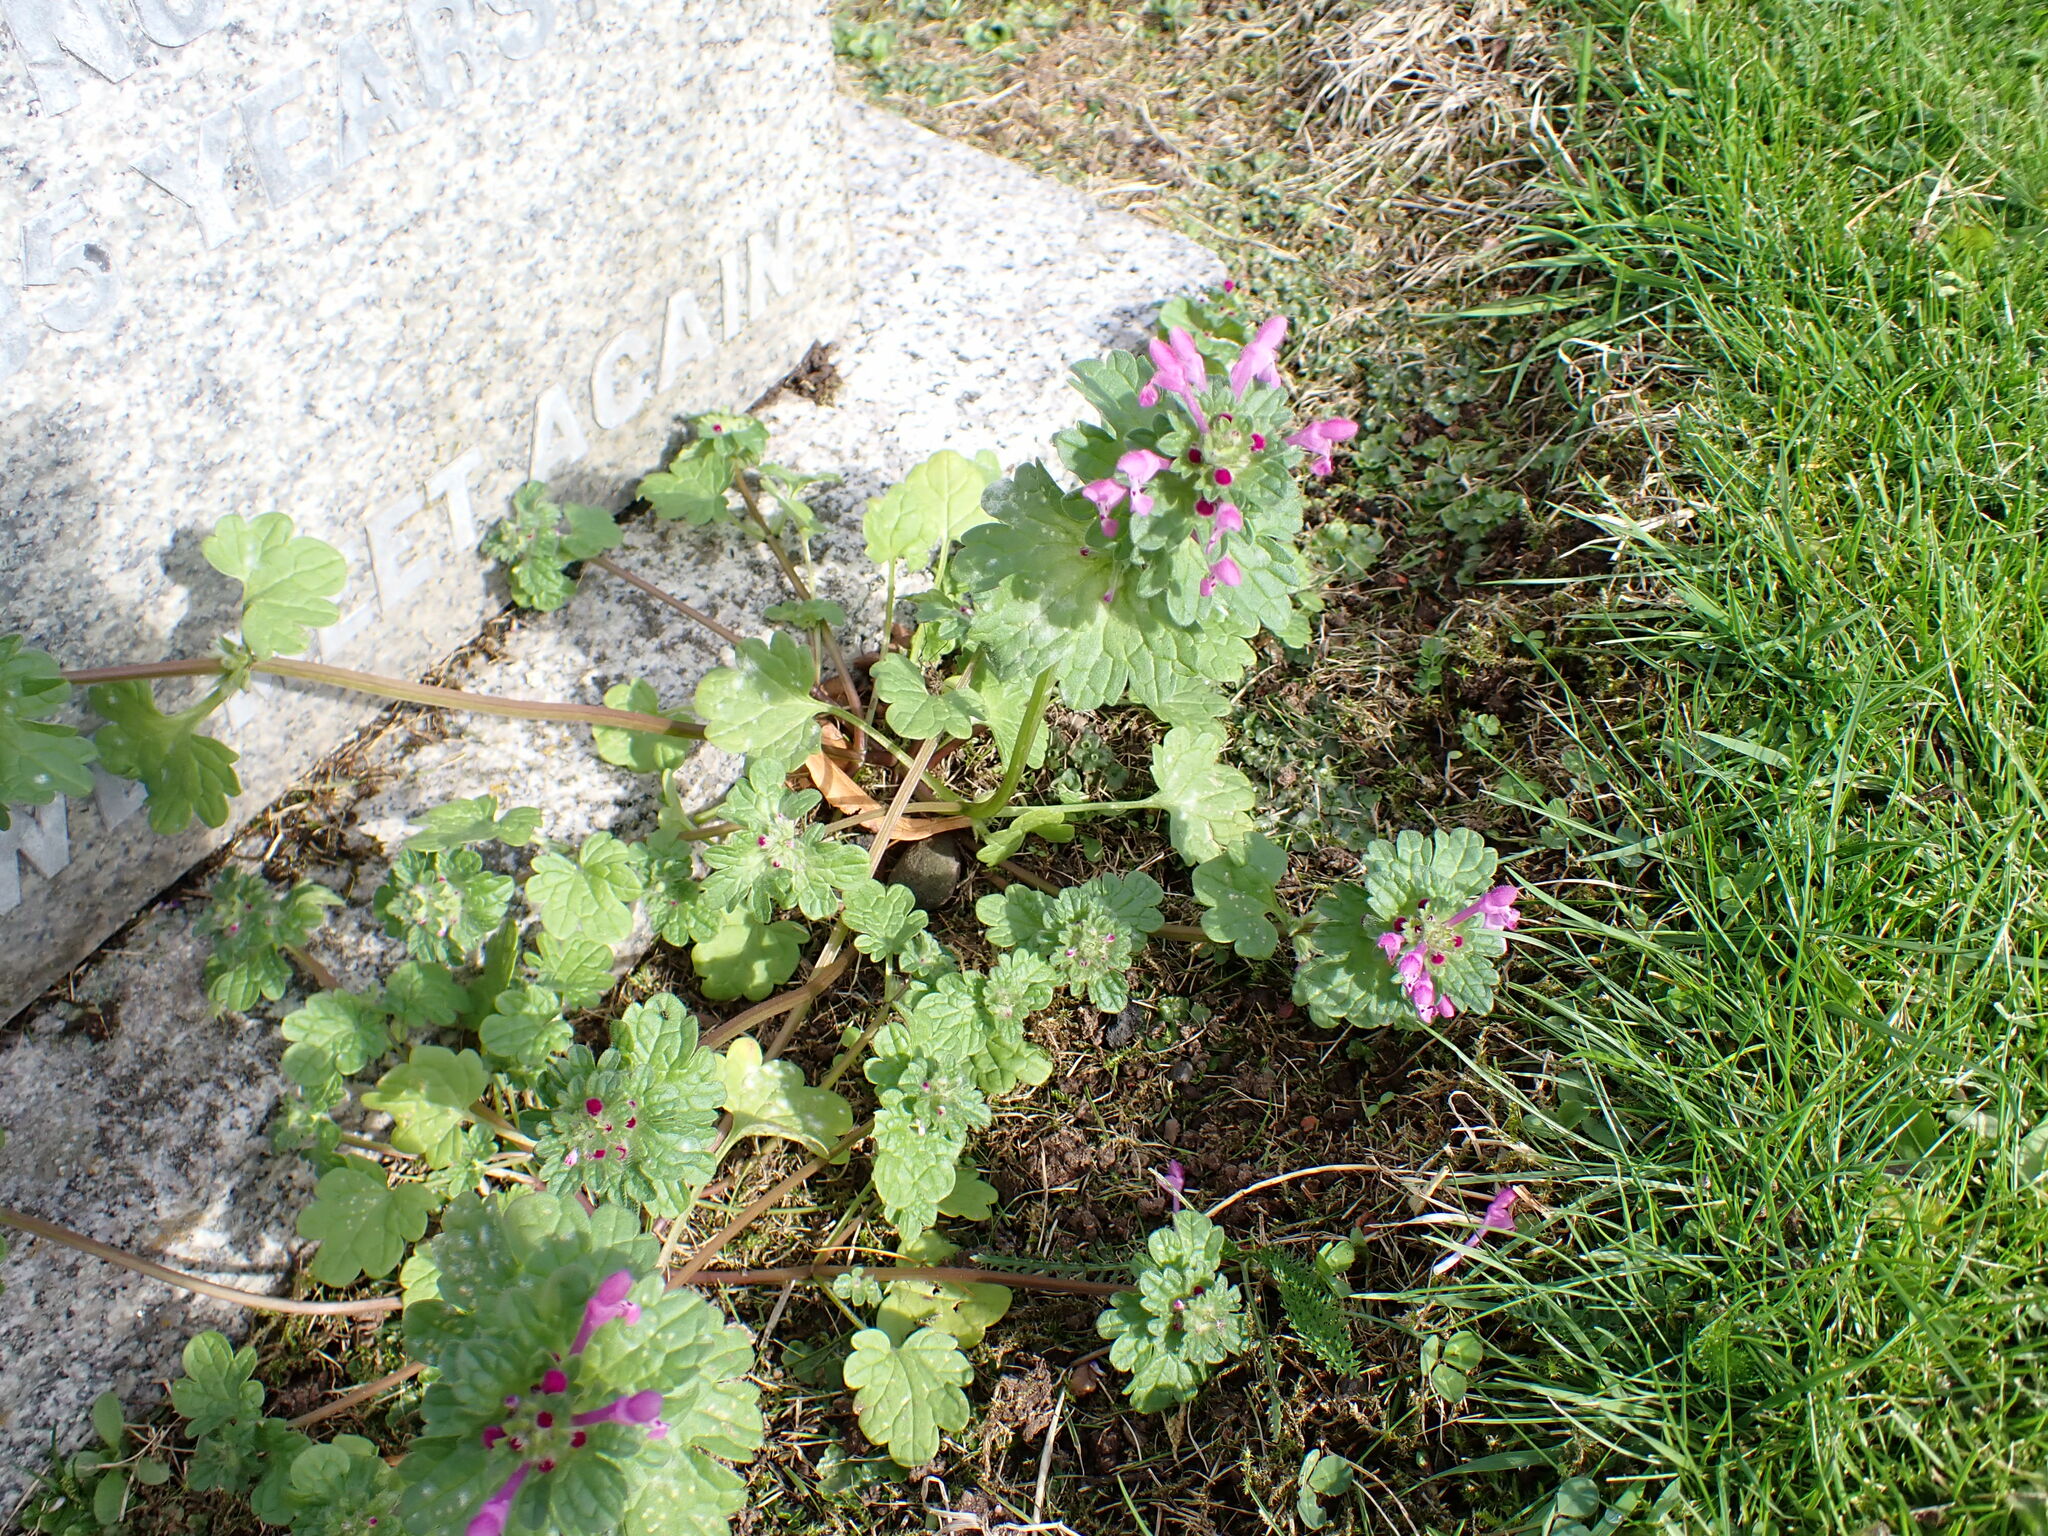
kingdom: Plantae
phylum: Tracheophyta
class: Magnoliopsida
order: Lamiales
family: Lamiaceae
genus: Lamium
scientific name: Lamium amplexicaule
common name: Henbit dead-nettle
